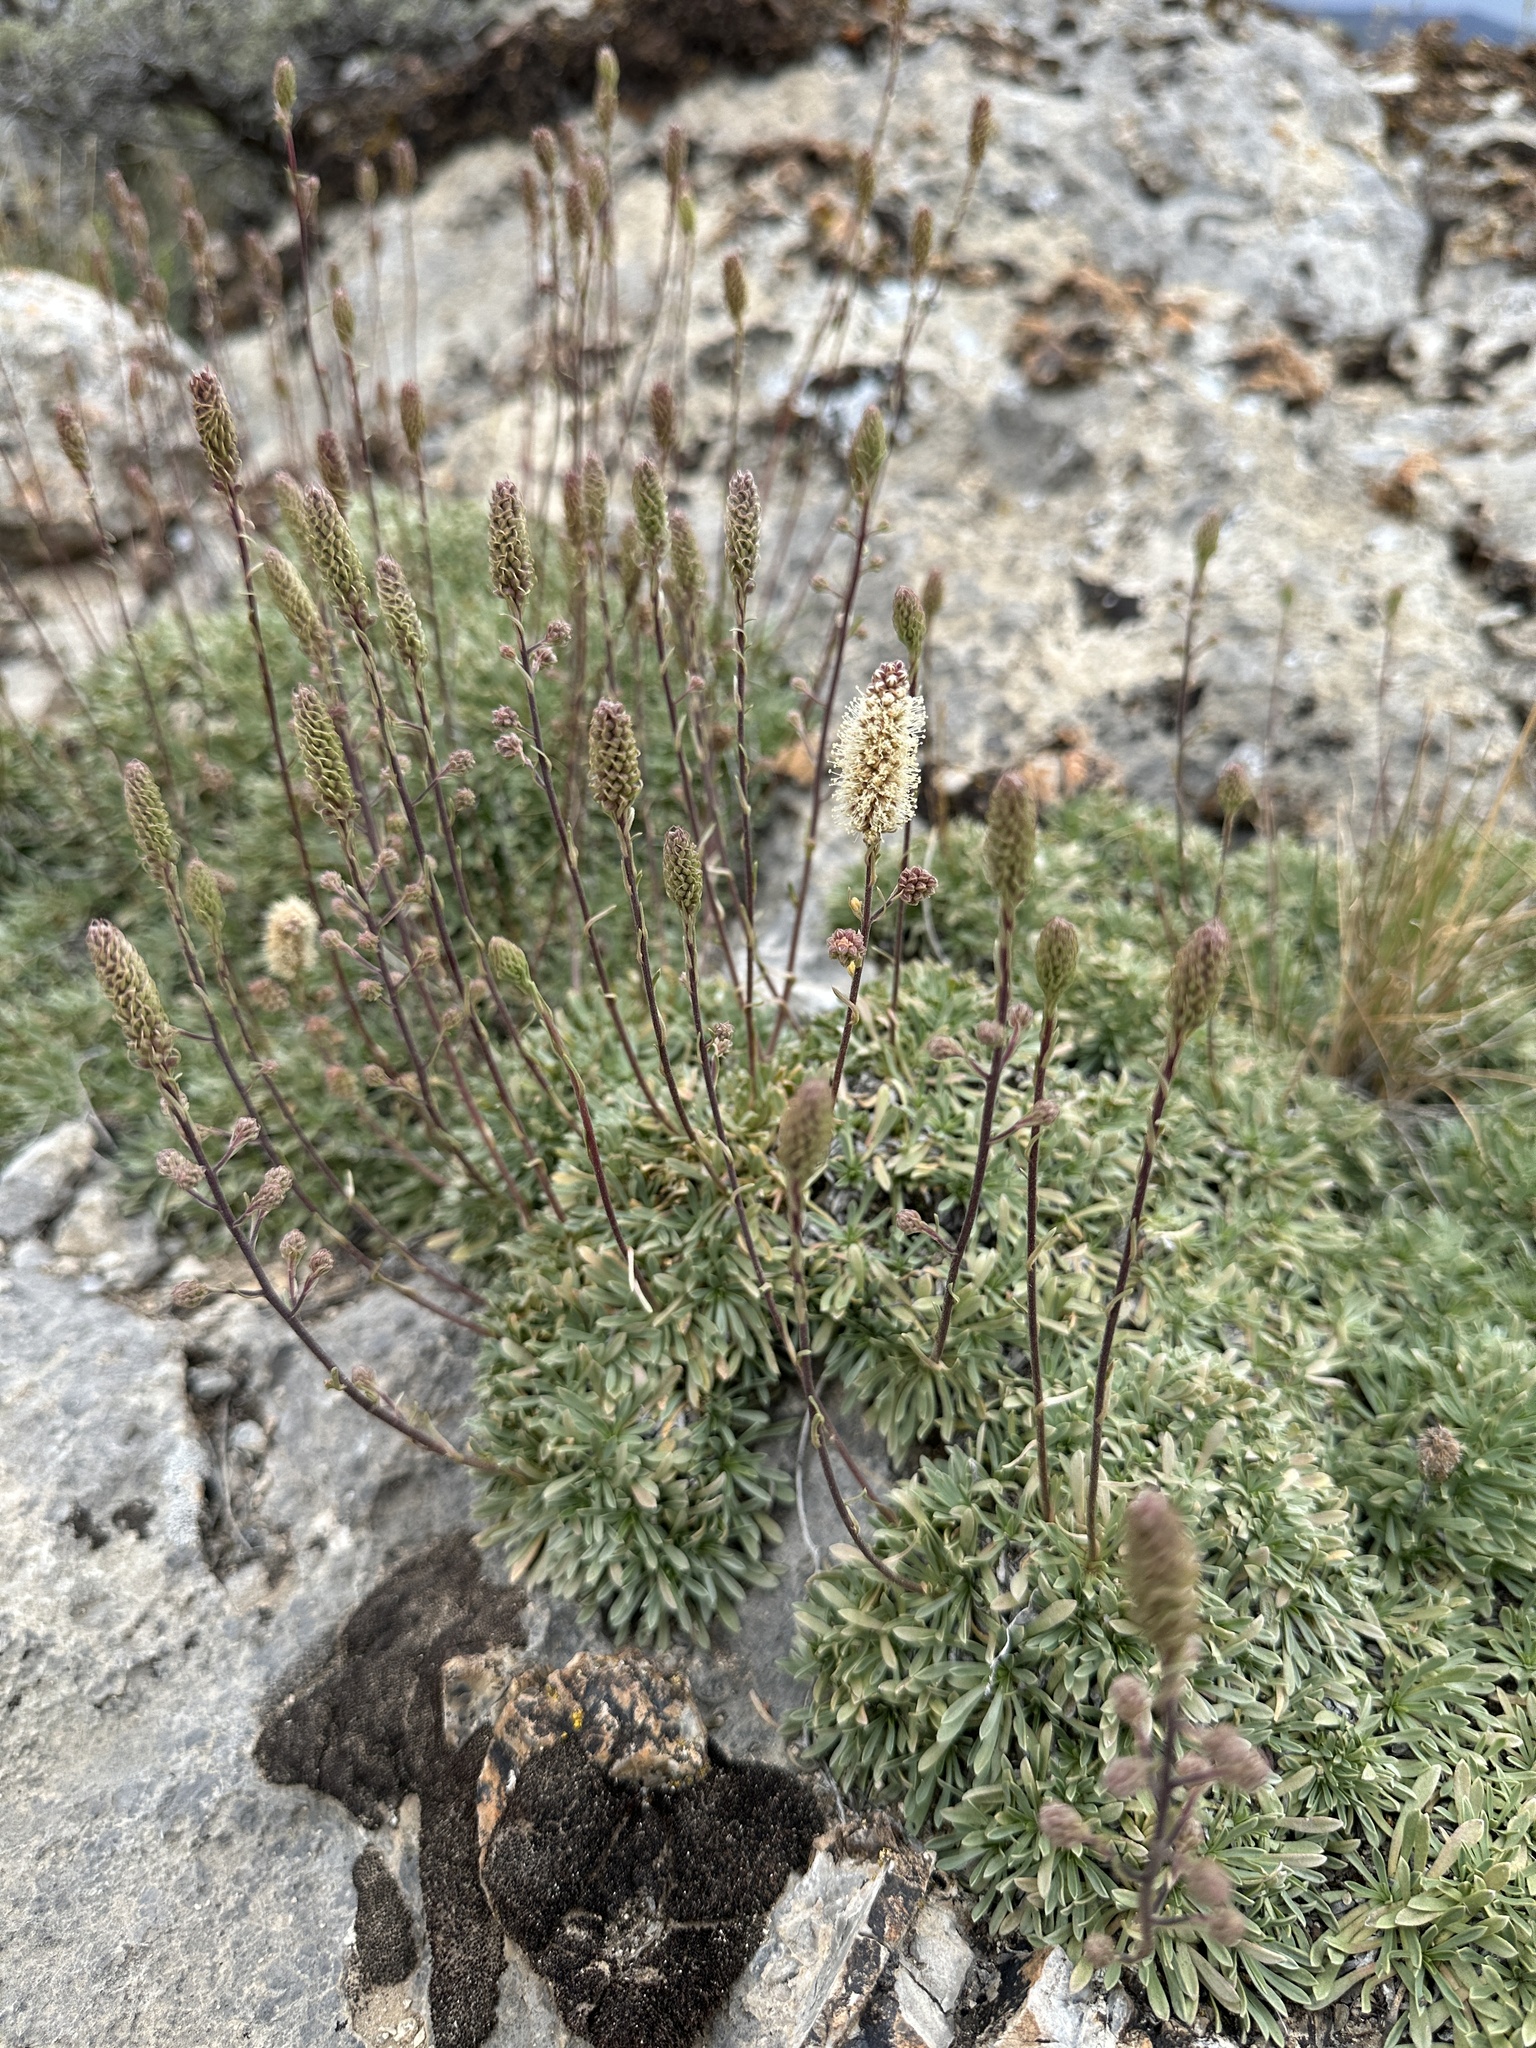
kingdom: Plantae
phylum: Tracheophyta
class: Magnoliopsida
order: Rosales
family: Rosaceae
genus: Petrophytum
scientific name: Petrophytum caespitosum
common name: Mat rockspirea
